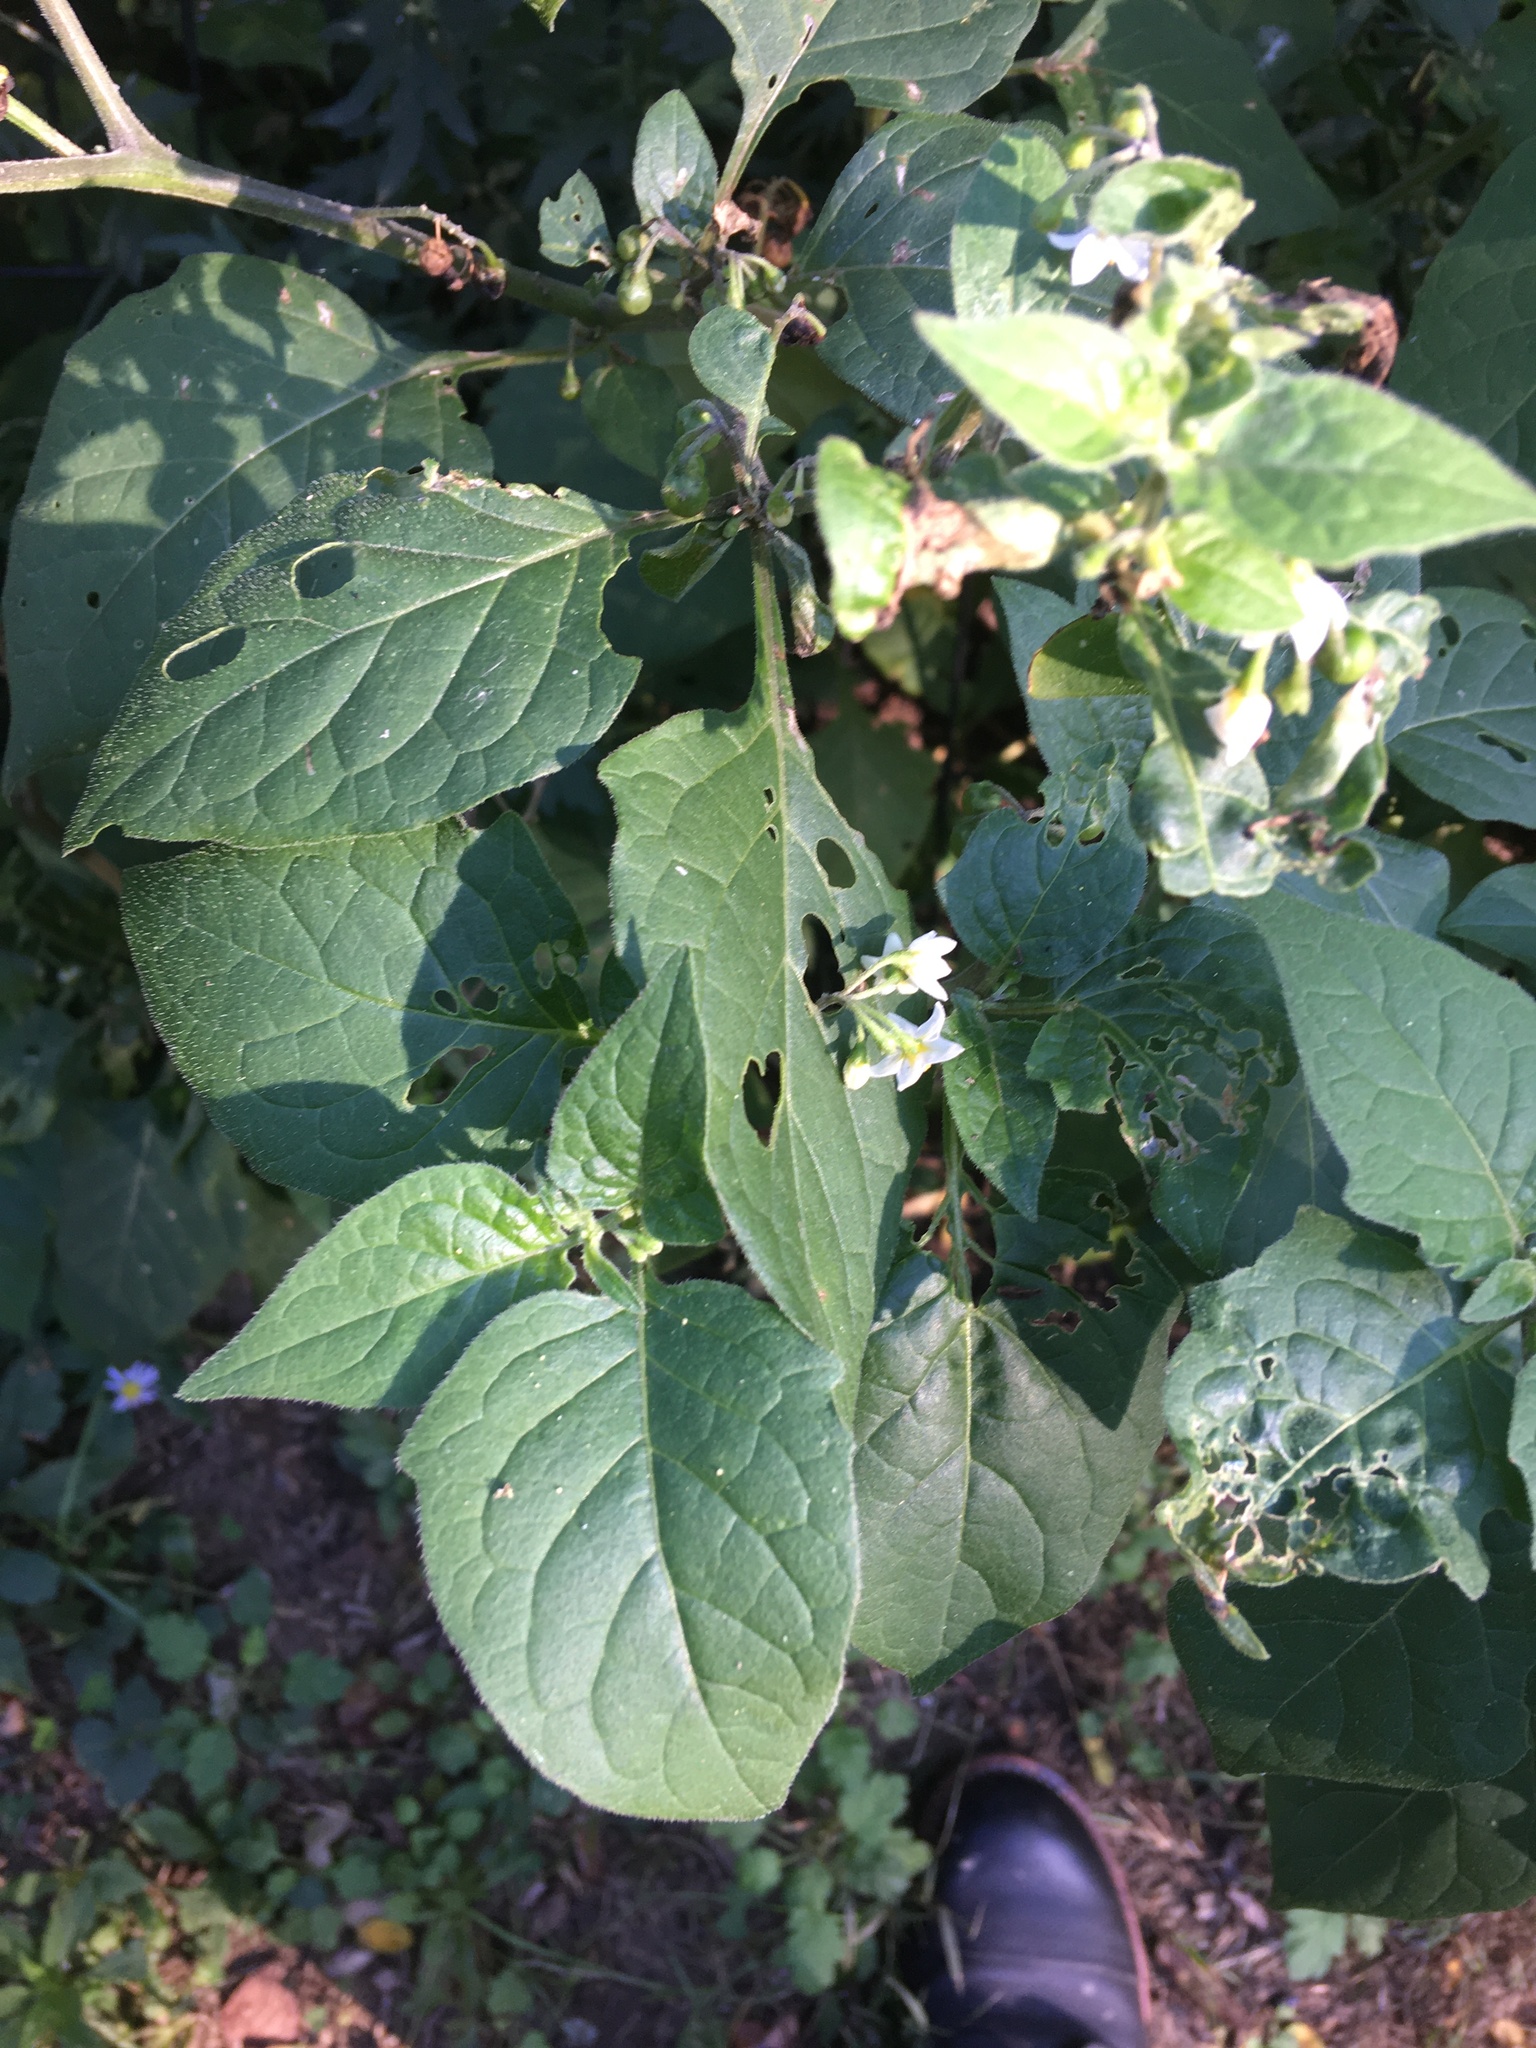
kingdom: Plantae
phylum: Tracheophyta
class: Magnoliopsida
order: Solanales
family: Solanaceae
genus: Solanum
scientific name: Solanum emulans
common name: Eastern black nightshade
